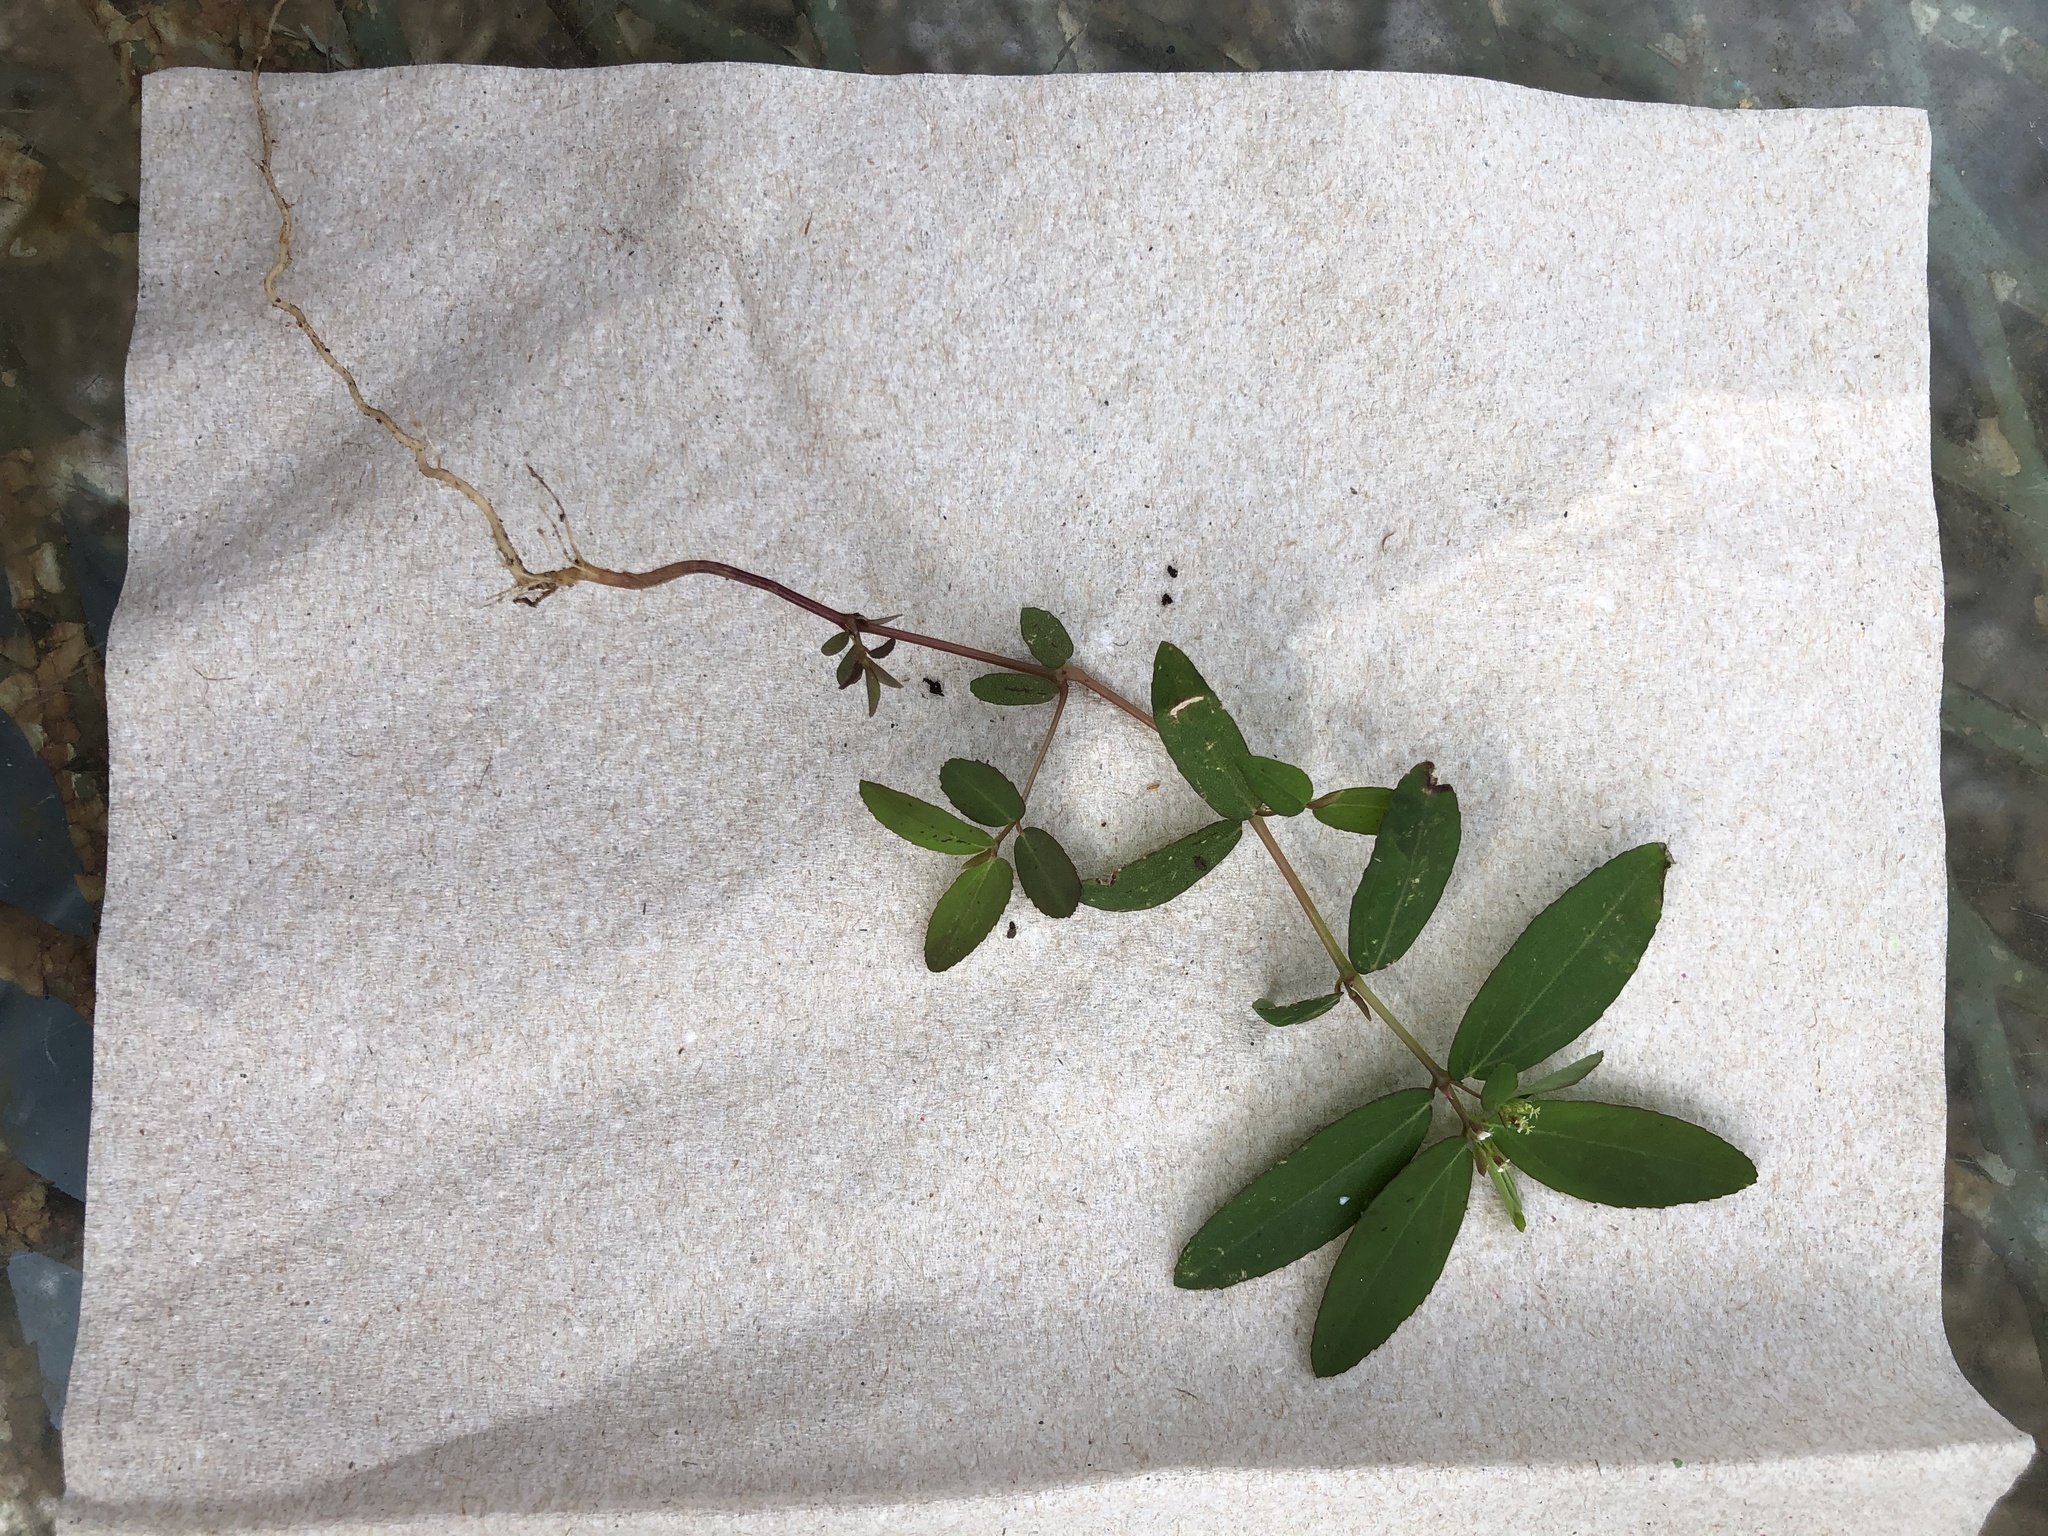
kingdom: Plantae
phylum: Tracheophyta
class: Magnoliopsida
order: Malpighiales
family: Euphorbiaceae
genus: Euphorbia
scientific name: Euphorbia hypericifolia
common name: Graceful sandmat
